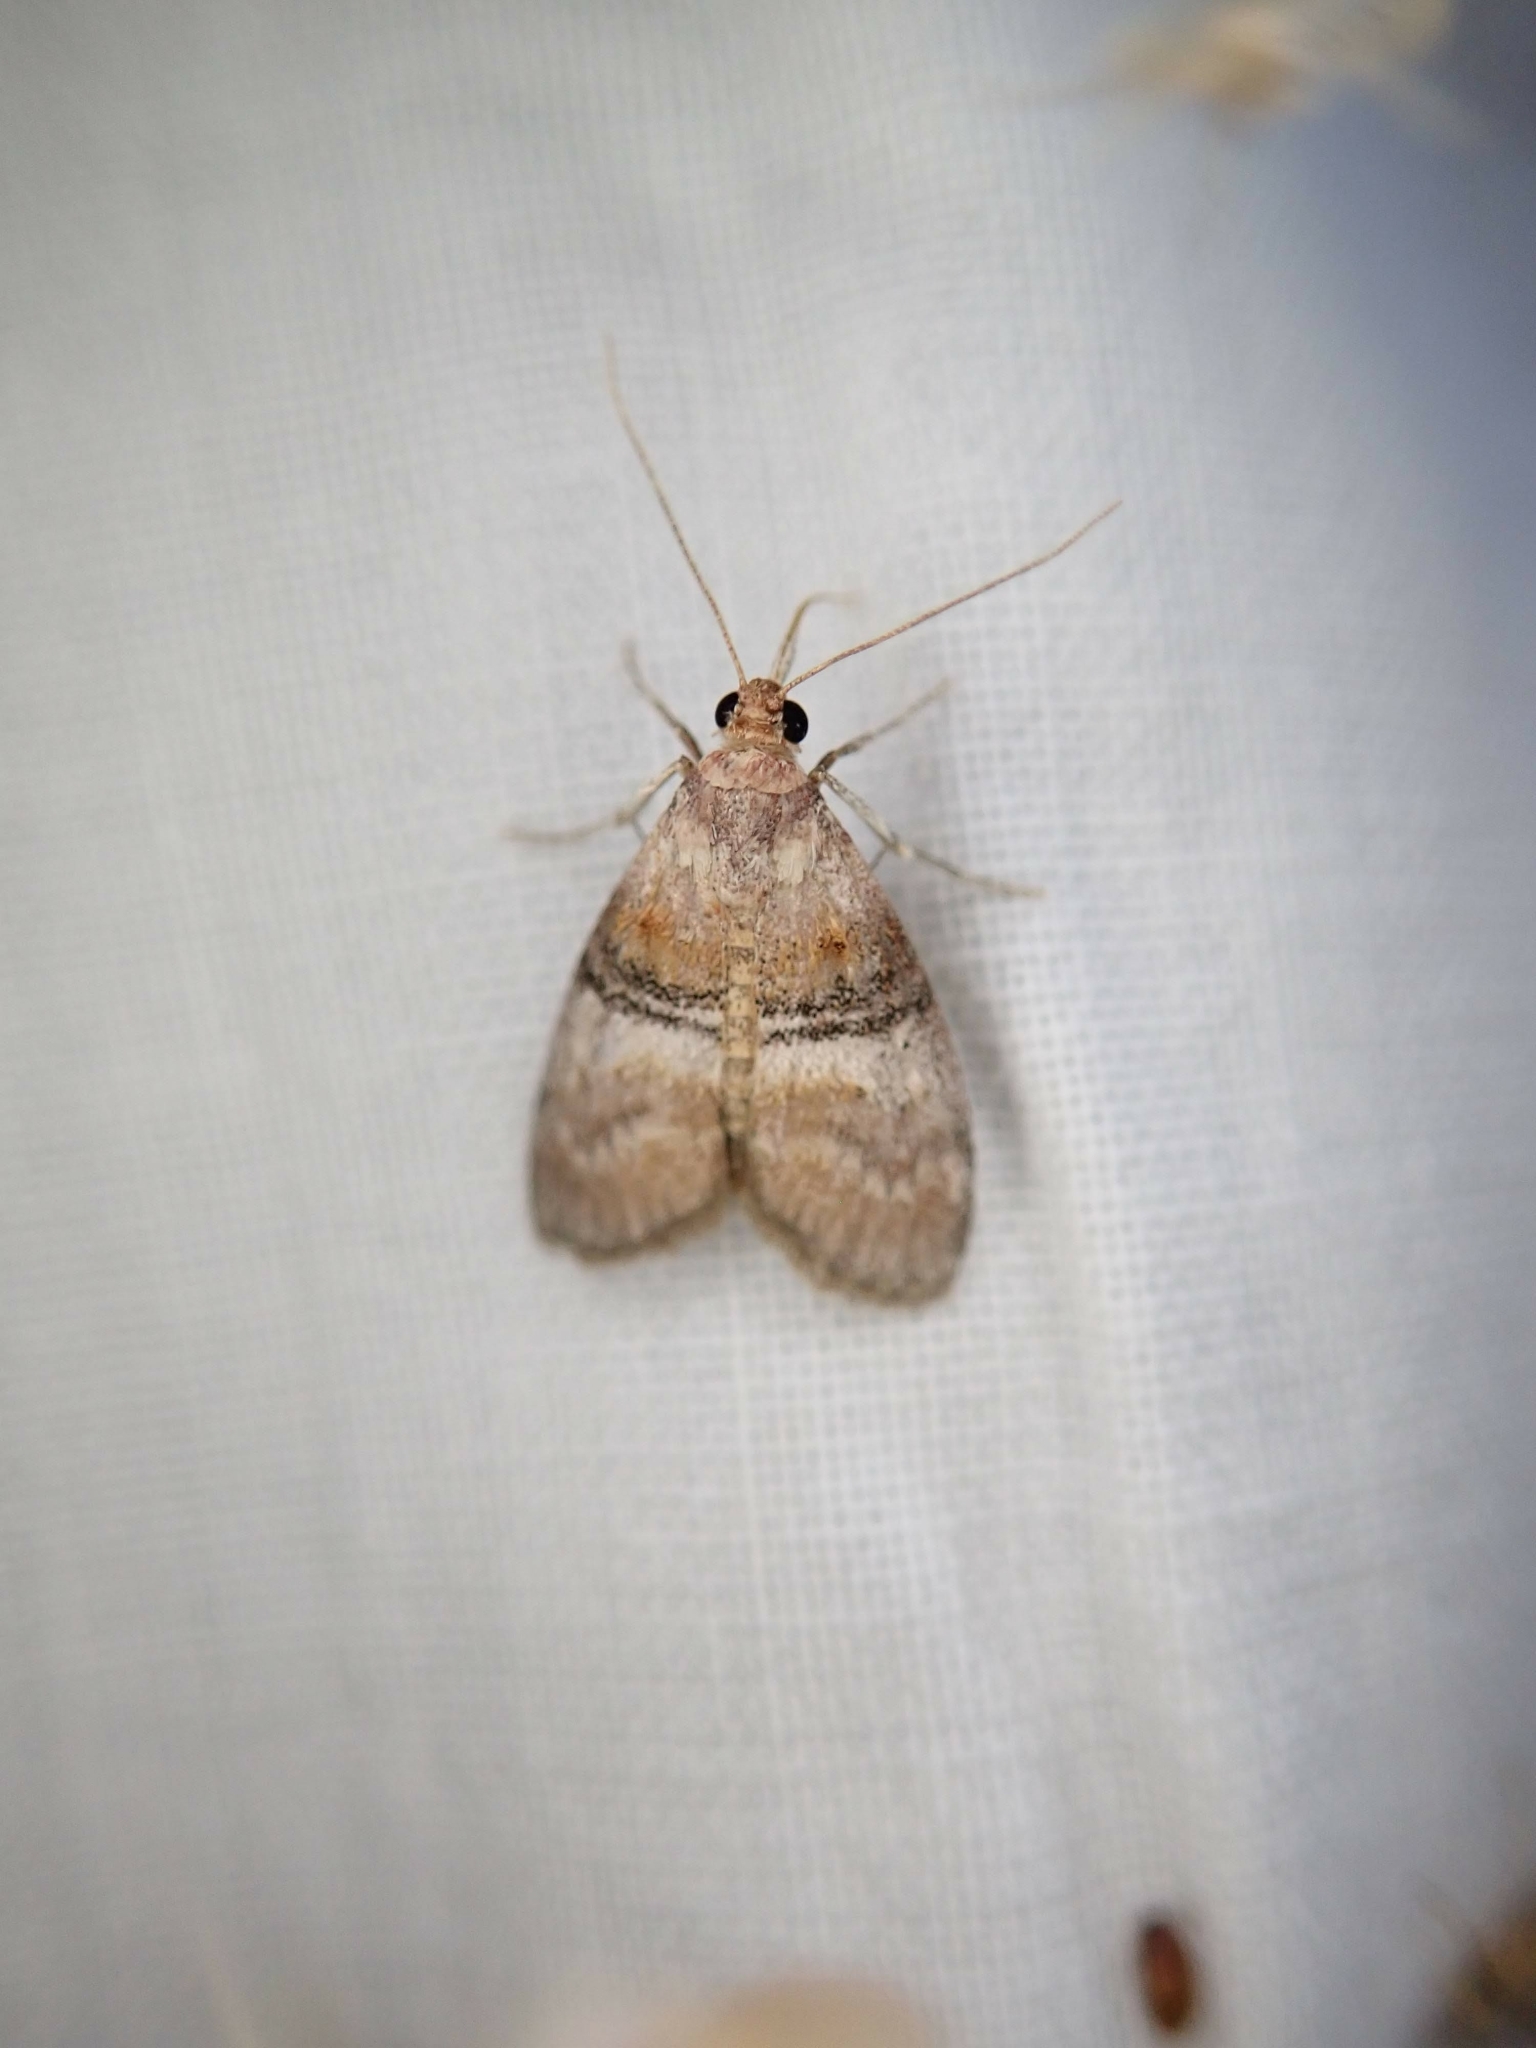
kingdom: Animalia
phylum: Arthropoda
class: Insecta
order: Lepidoptera
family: Pyralidae
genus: Pococera
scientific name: Pococera militella
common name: Sycamore webworm moth
